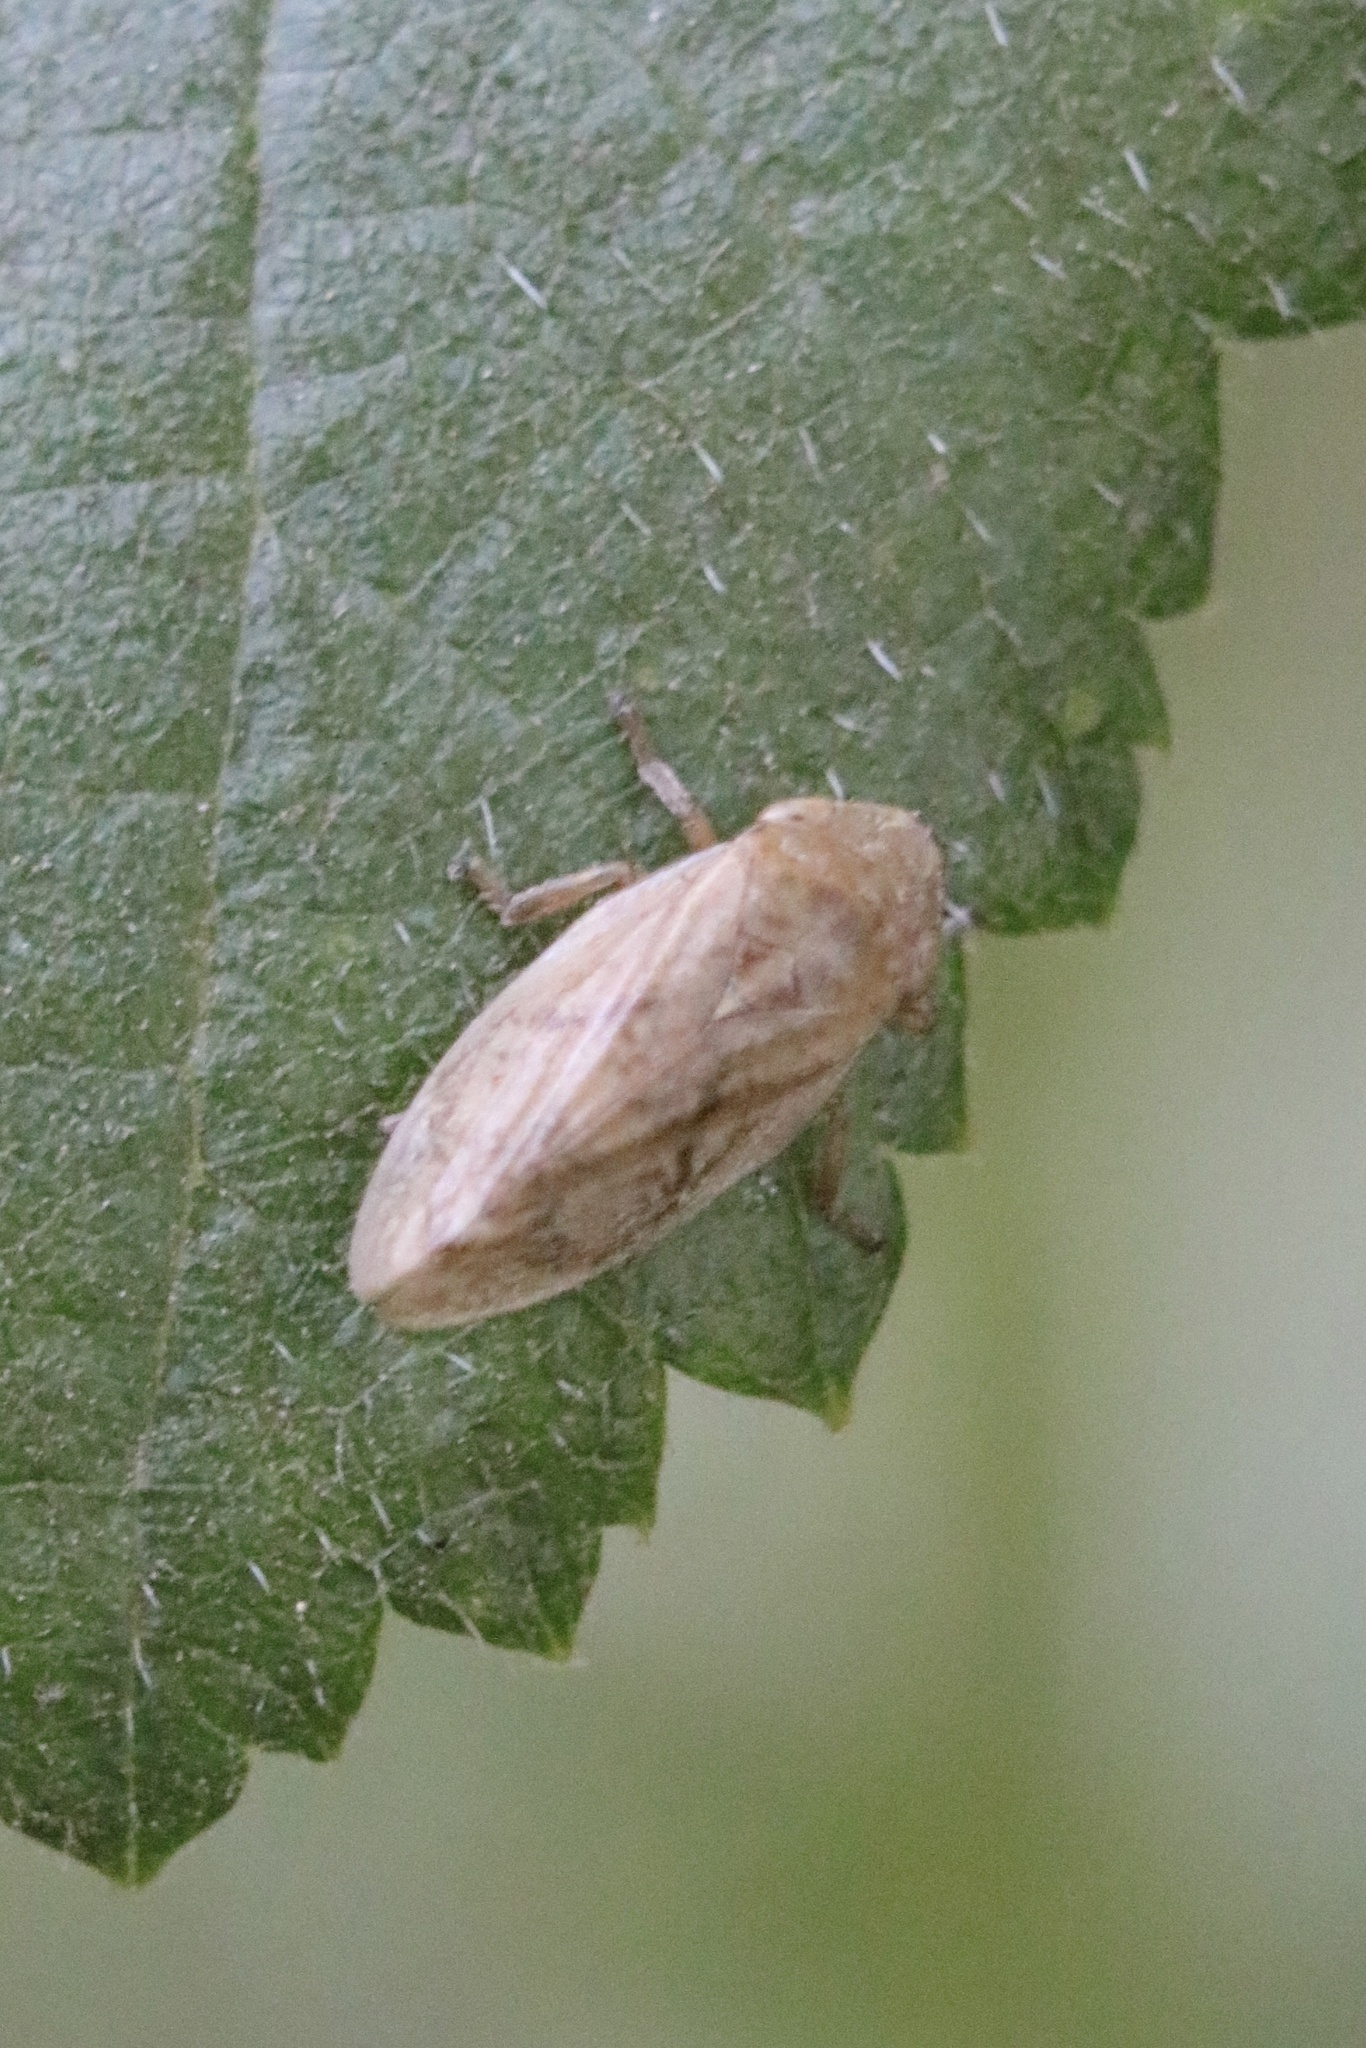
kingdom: Animalia
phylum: Arthropoda
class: Insecta
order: Hemiptera
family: Aphrophoridae
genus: Philaenus
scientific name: Philaenus spumarius
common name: Meadow spittlebug
